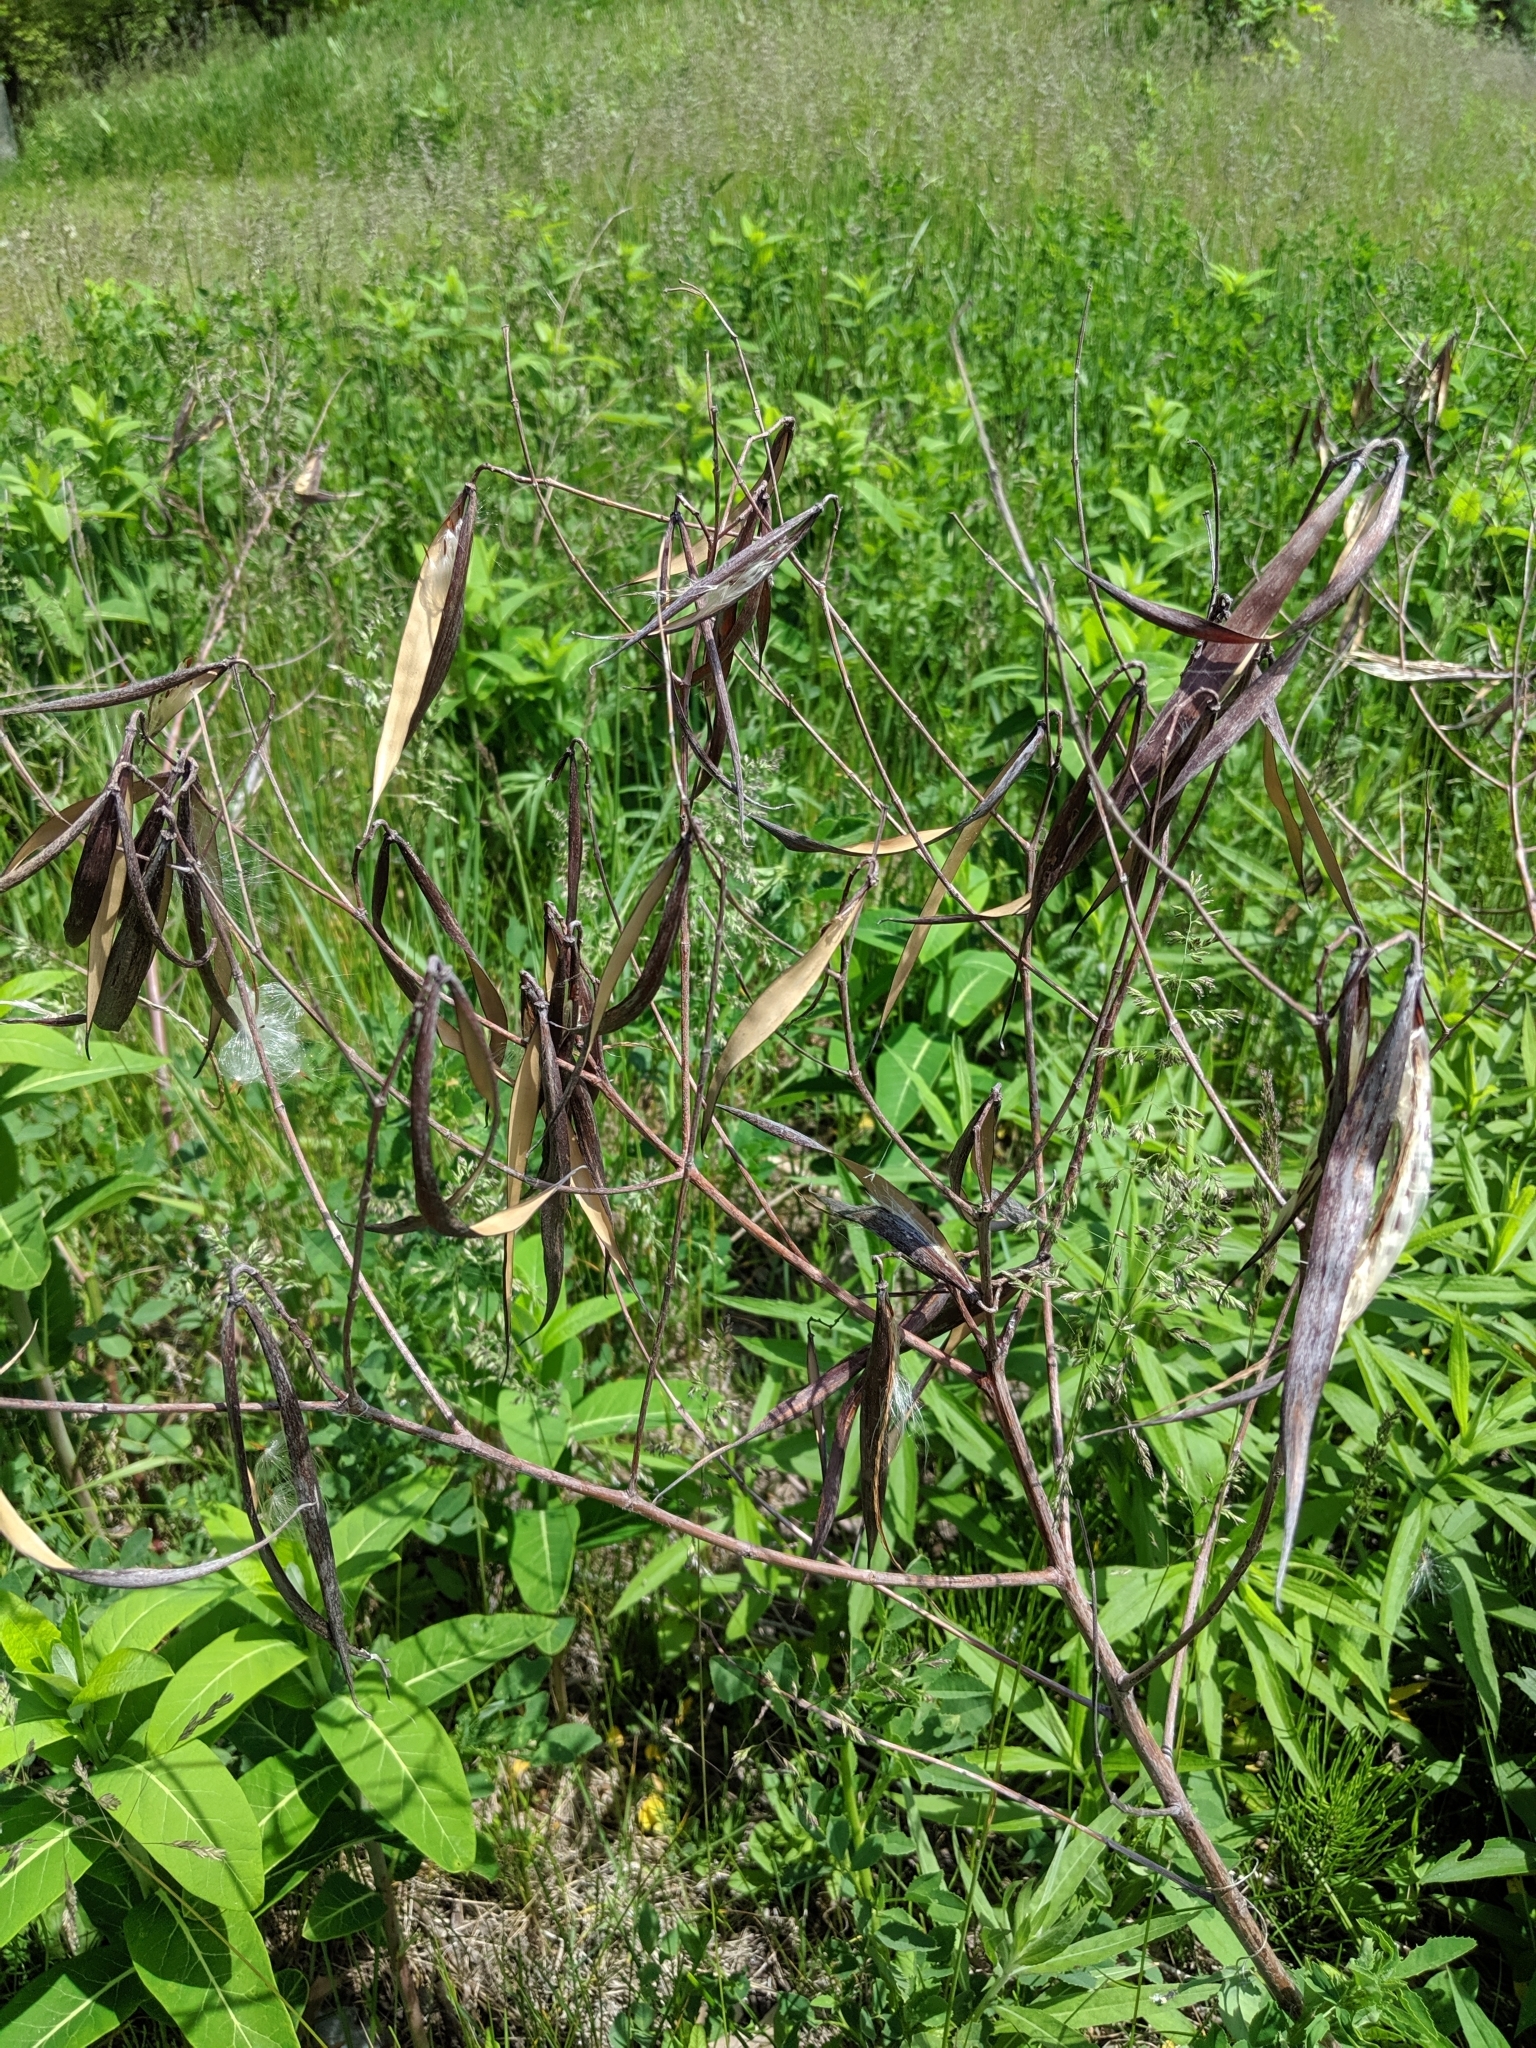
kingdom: Plantae
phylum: Tracheophyta
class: Magnoliopsida
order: Gentianales
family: Apocynaceae
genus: Apocynum
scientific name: Apocynum cannabinum
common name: Hemp dogbane
